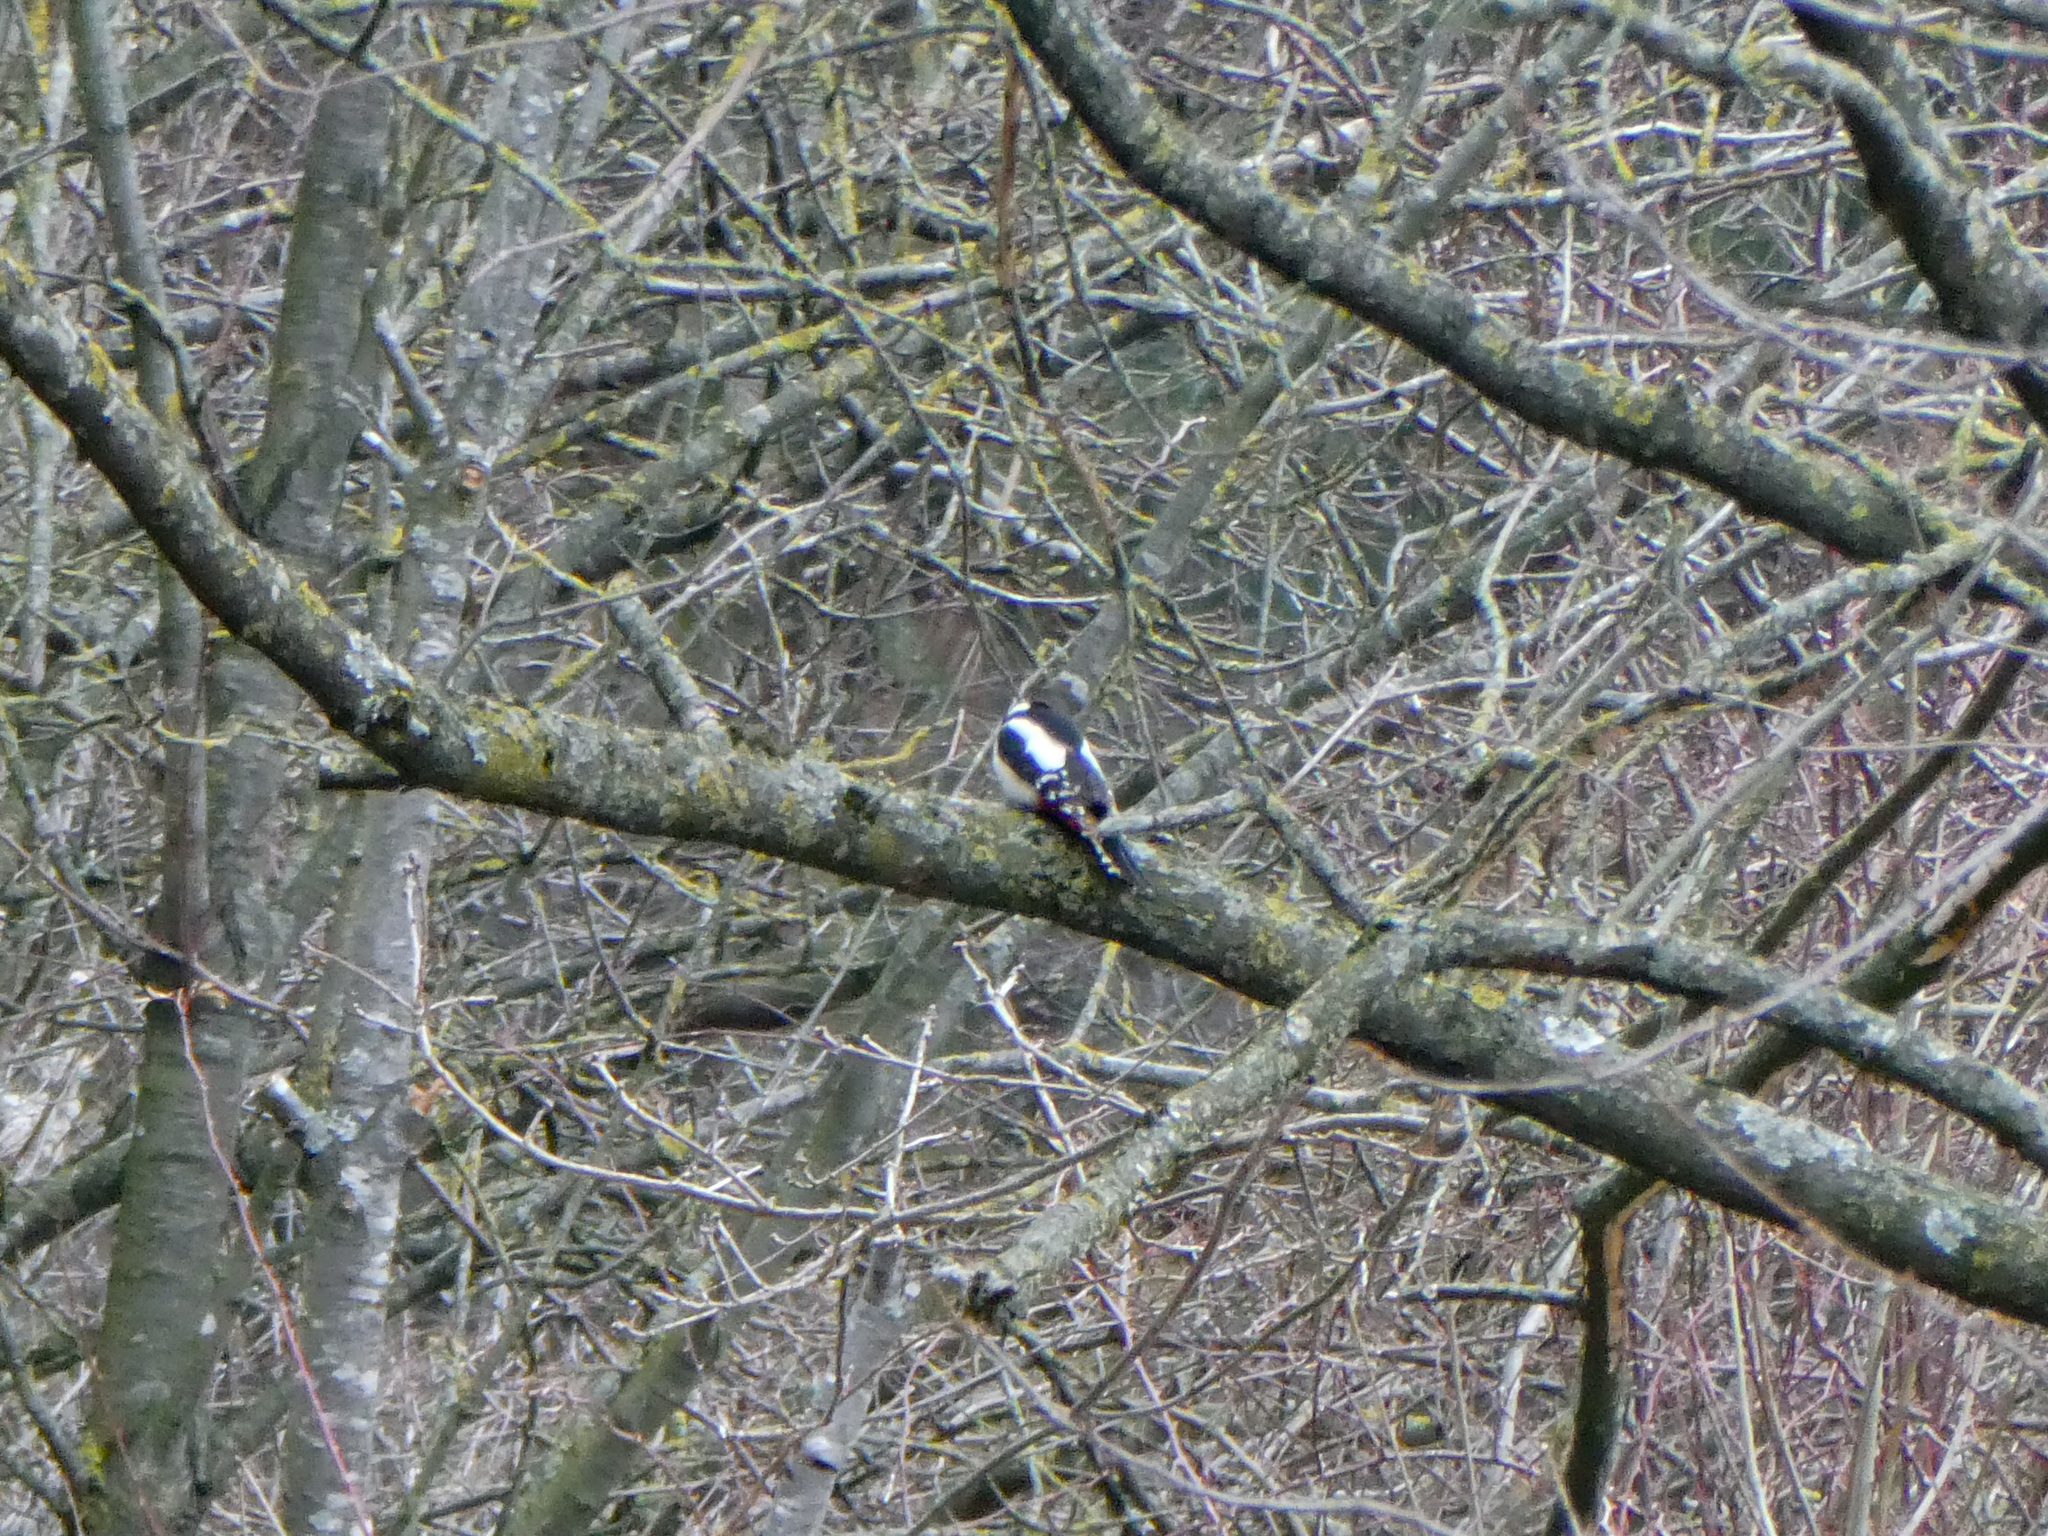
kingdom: Animalia
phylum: Chordata
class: Aves
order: Piciformes
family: Picidae
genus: Dendrocopos
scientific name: Dendrocopos major
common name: Great spotted woodpecker
